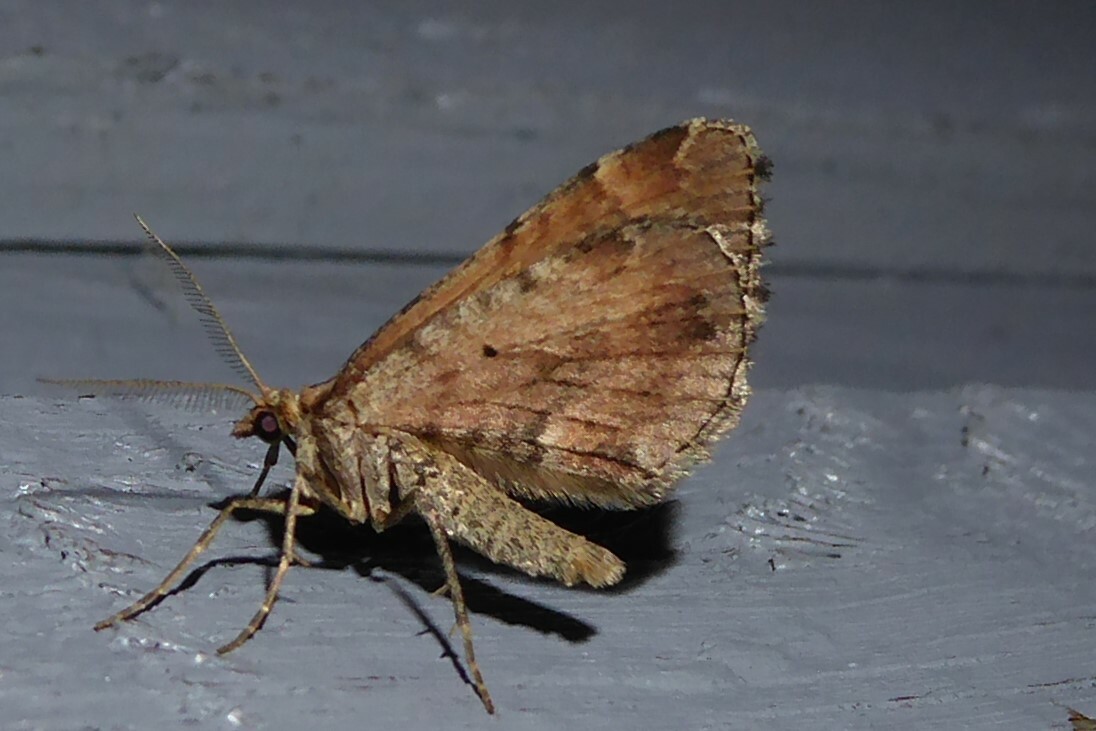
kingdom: Animalia
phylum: Arthropoda
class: Insecta
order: Lepidoptera
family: Geometridae
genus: Asaphodes
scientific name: Asaphodes aegrota
